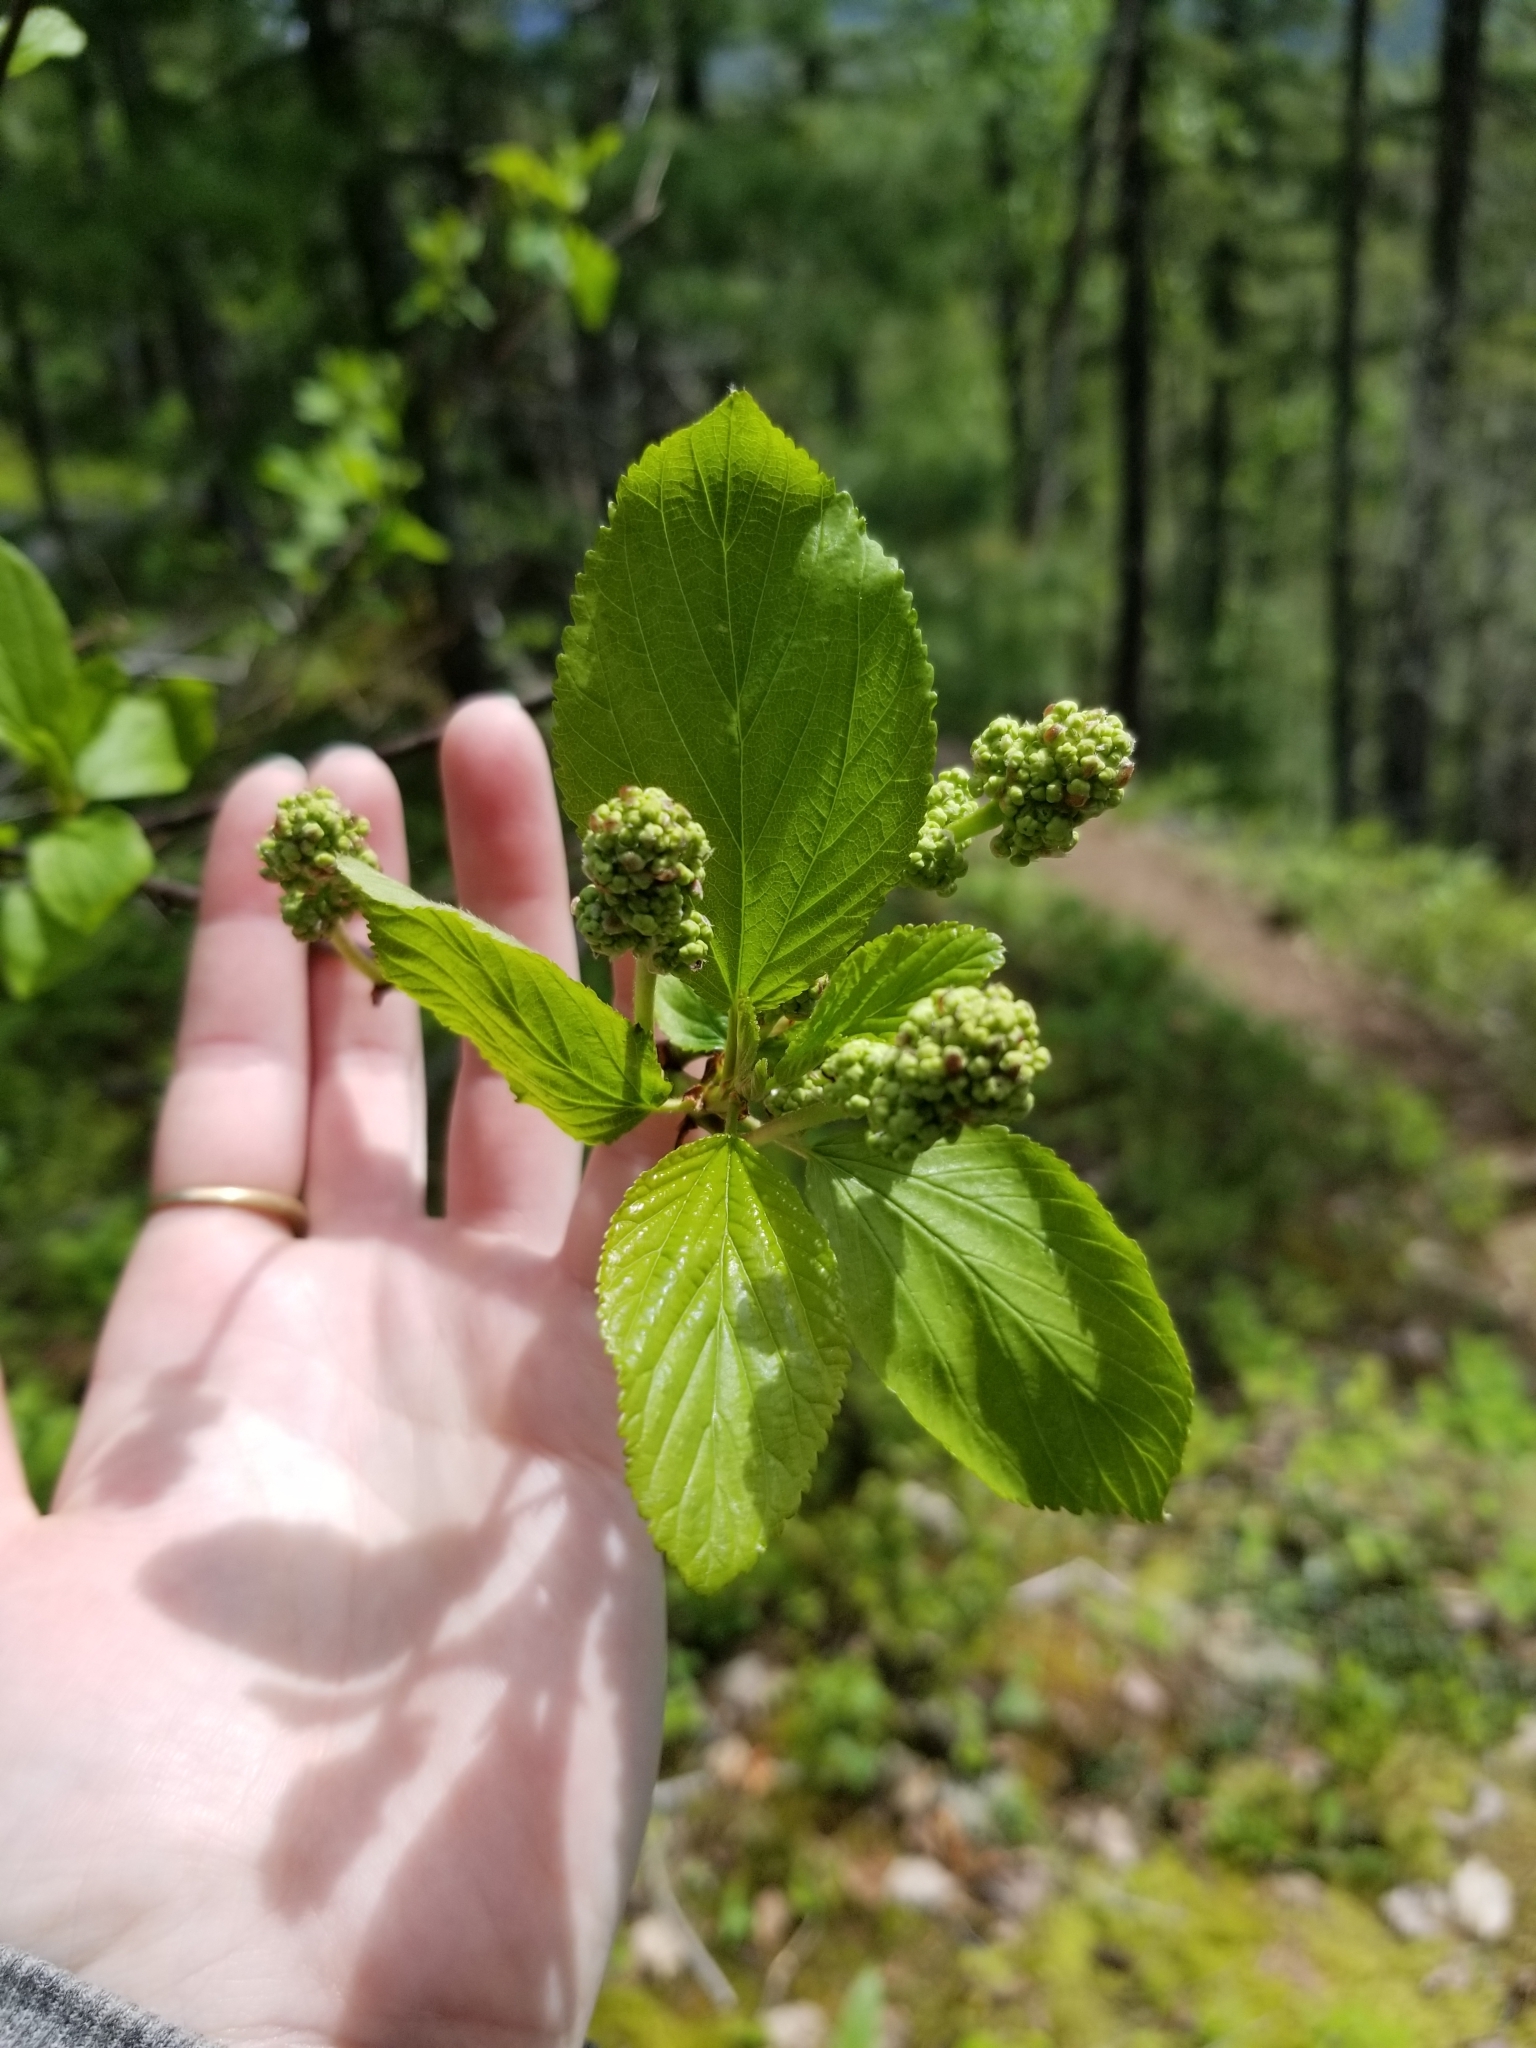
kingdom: Plantae
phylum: Tracheophyta
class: Magnoliopsida
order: Rosales
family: Rhamnaceae
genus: Ceanothus
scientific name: Ceanothus sanguineus
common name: Teatree
